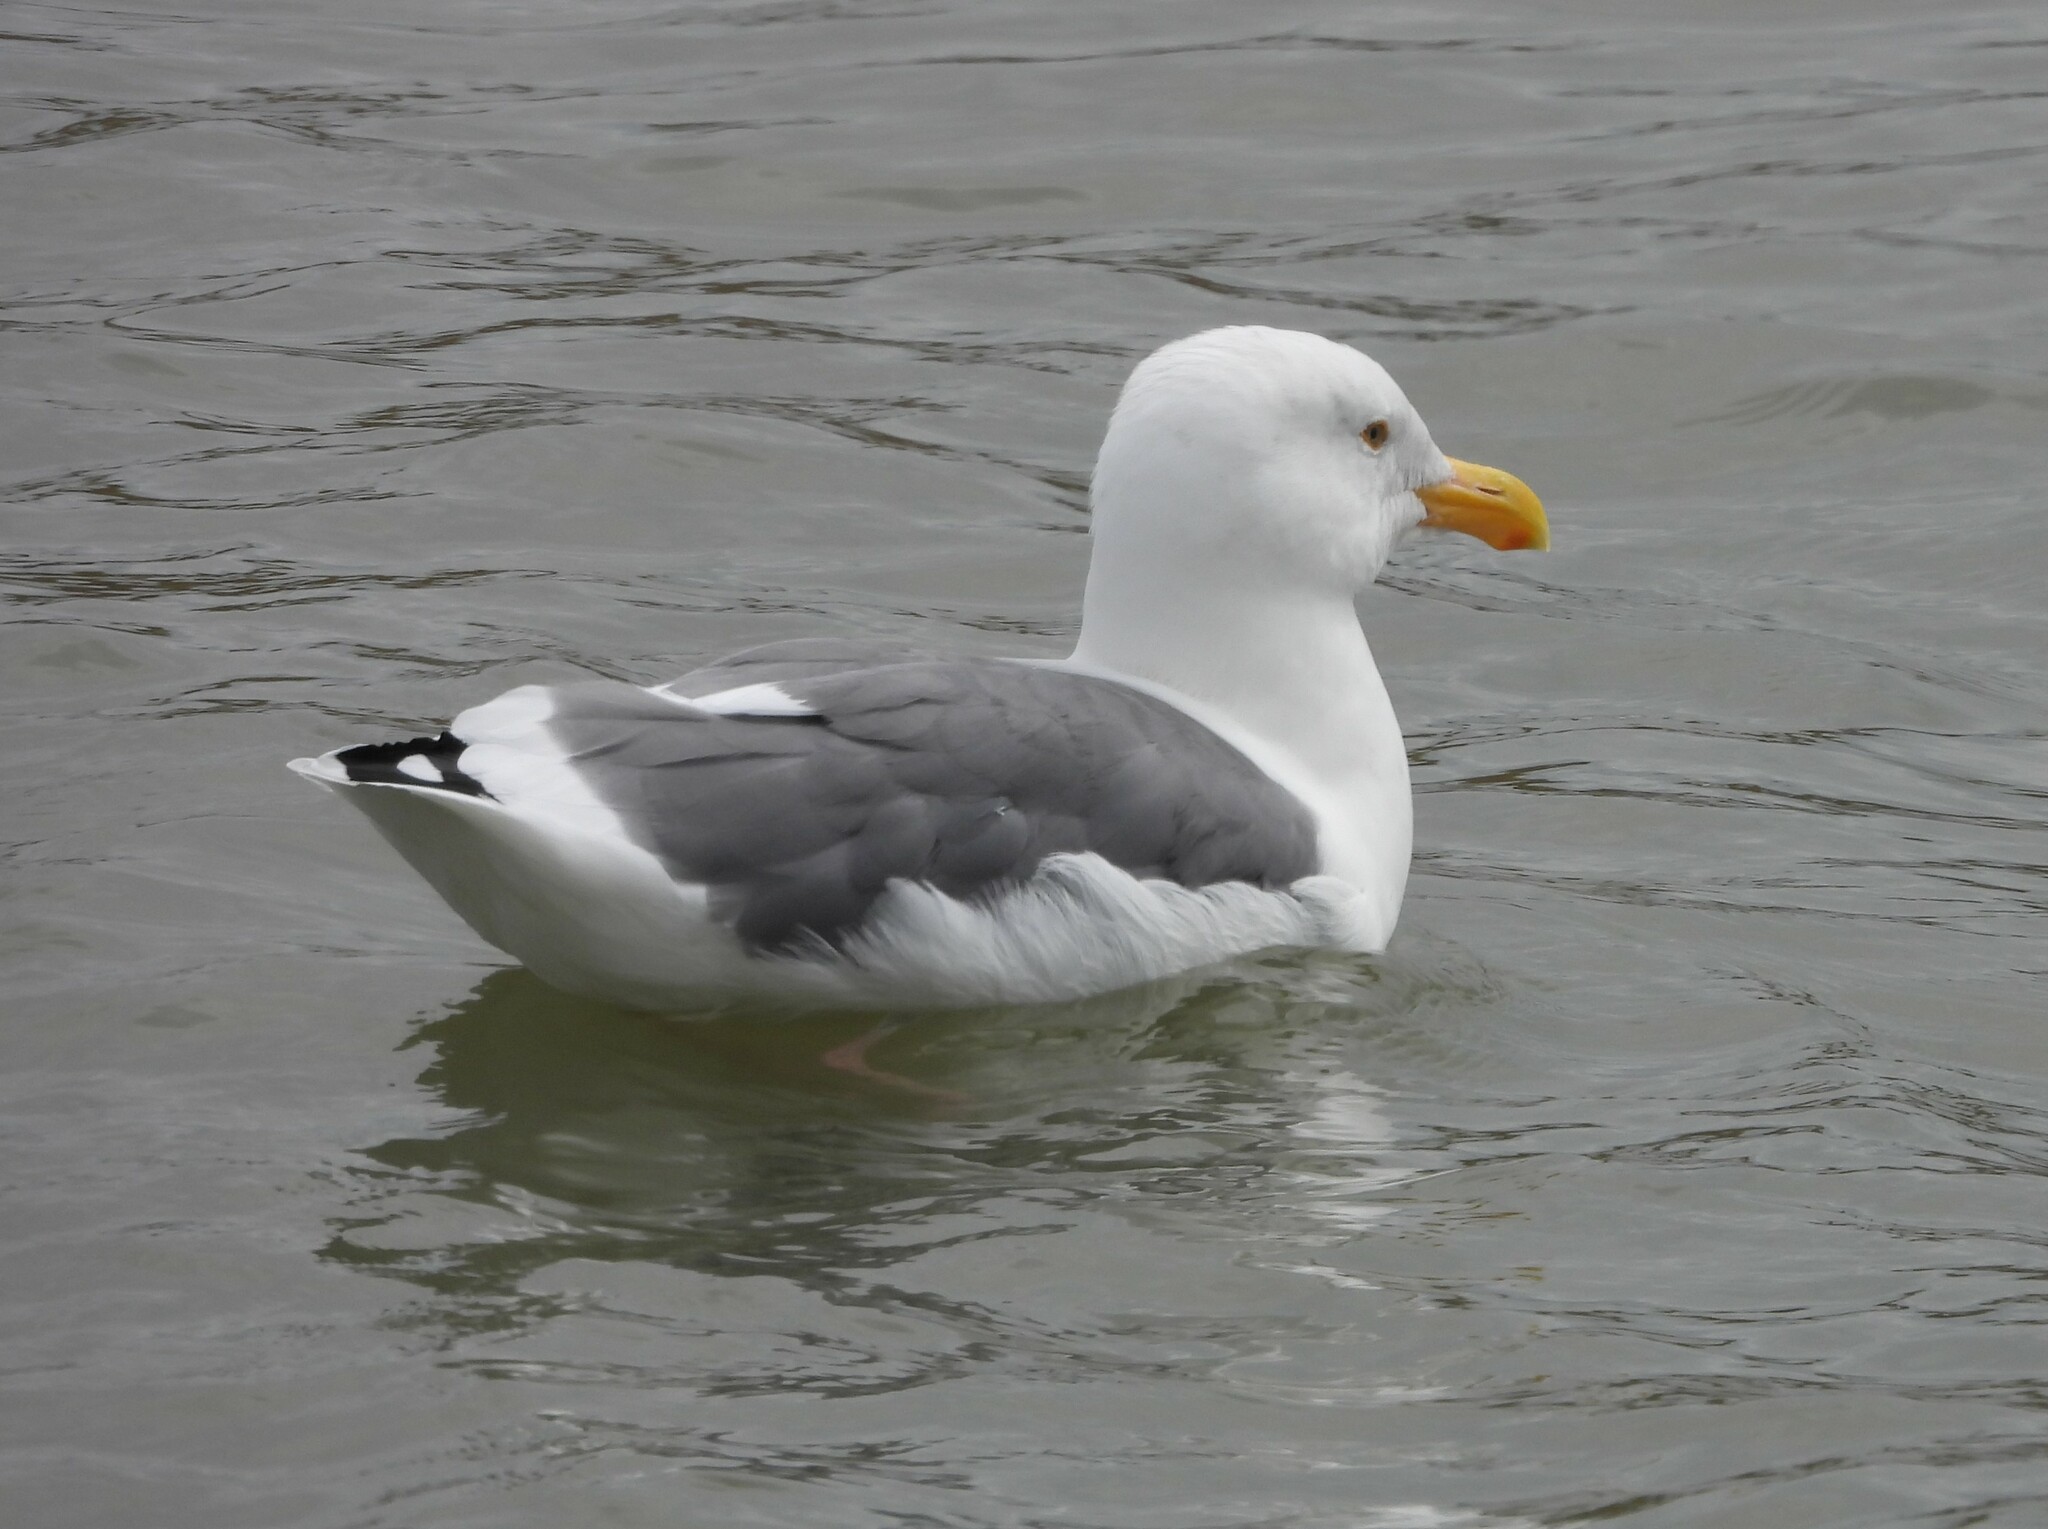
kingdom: Animalia
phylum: Chordata
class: Aves
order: Charadriiformes
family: Laridae
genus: Larus
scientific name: Larus occidentalis
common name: Western gull
